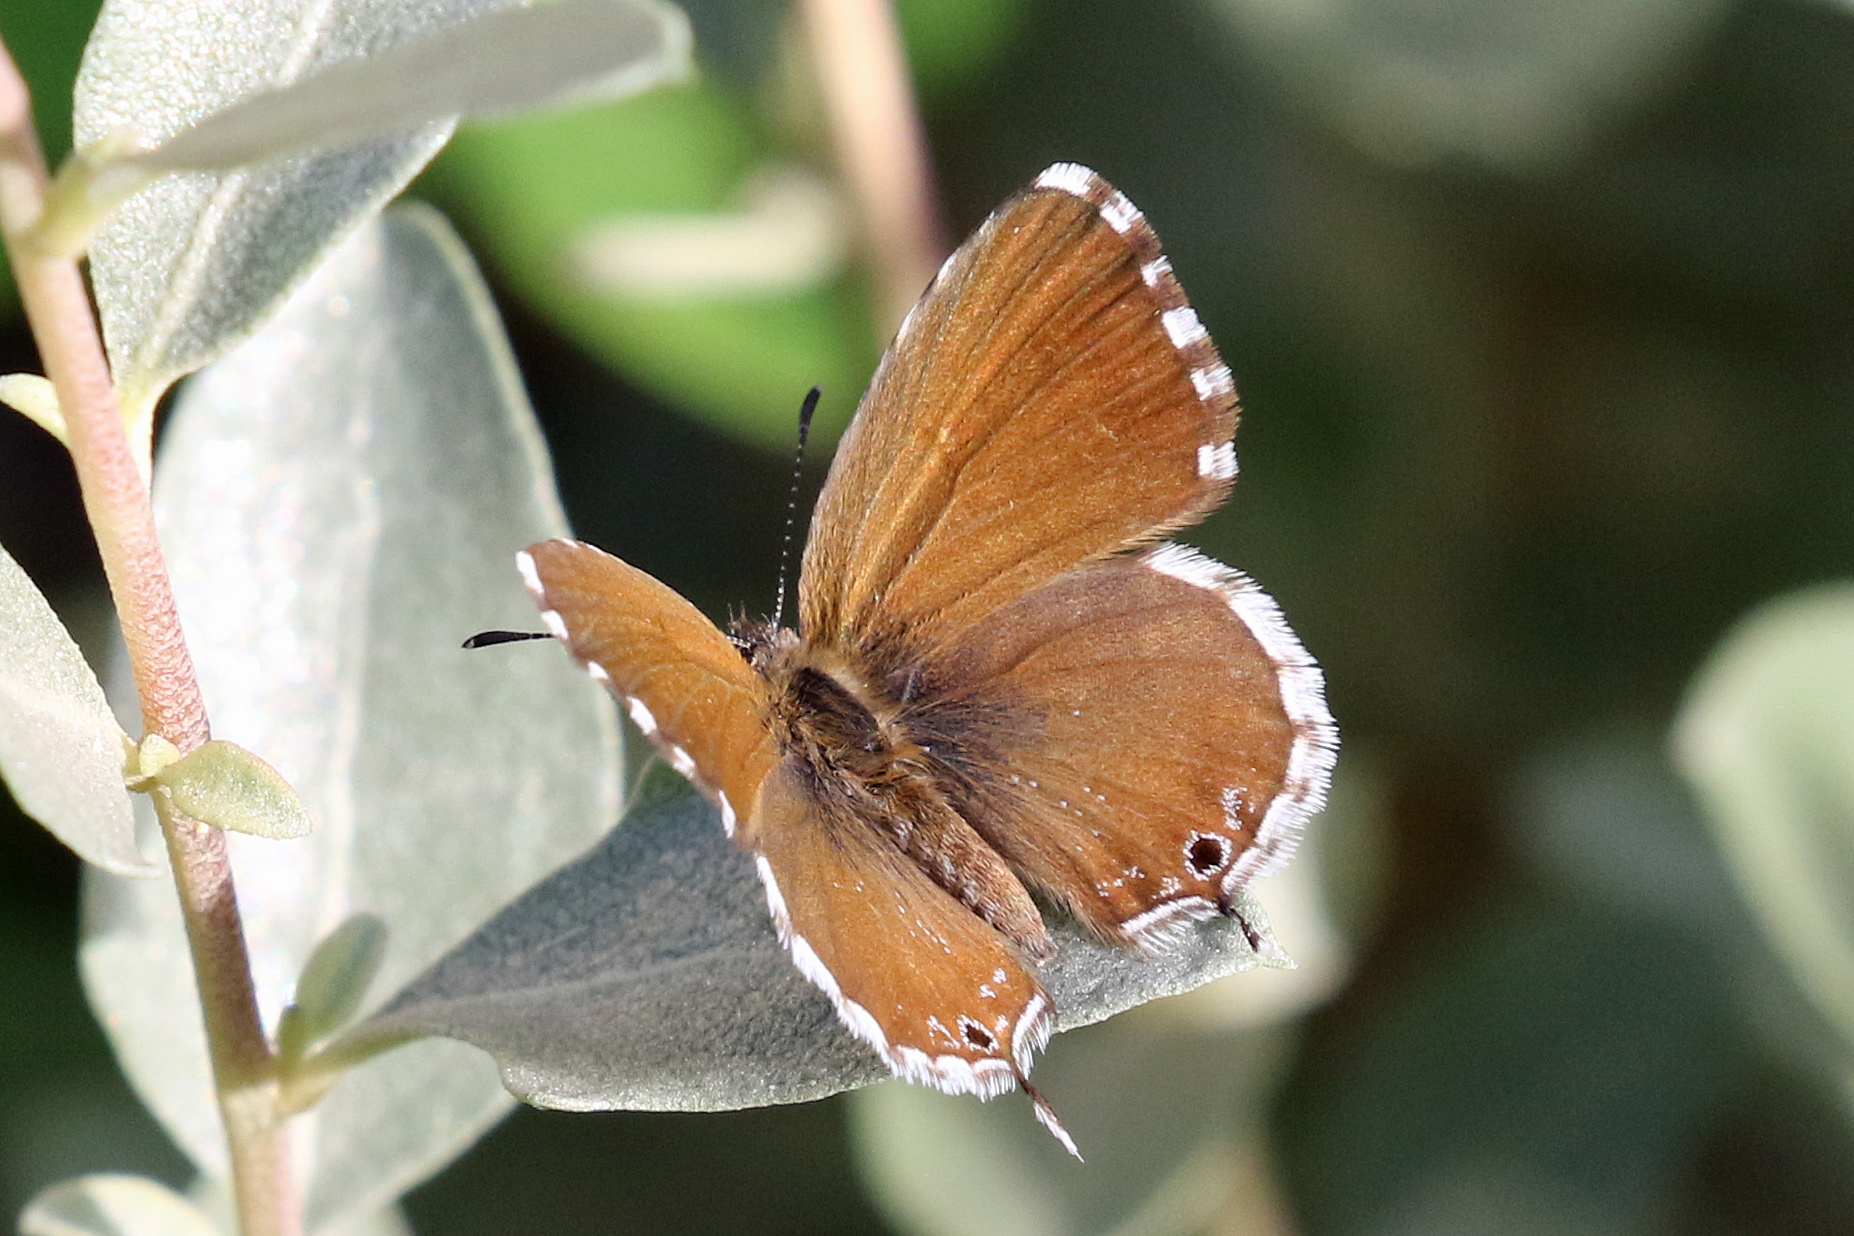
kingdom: Animalia
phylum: Arthropoda
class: Insecta
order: Lepidoptera
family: Lycaenidae
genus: Cacyreus
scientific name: Cacyreus marshalli
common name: Geranium bronze
